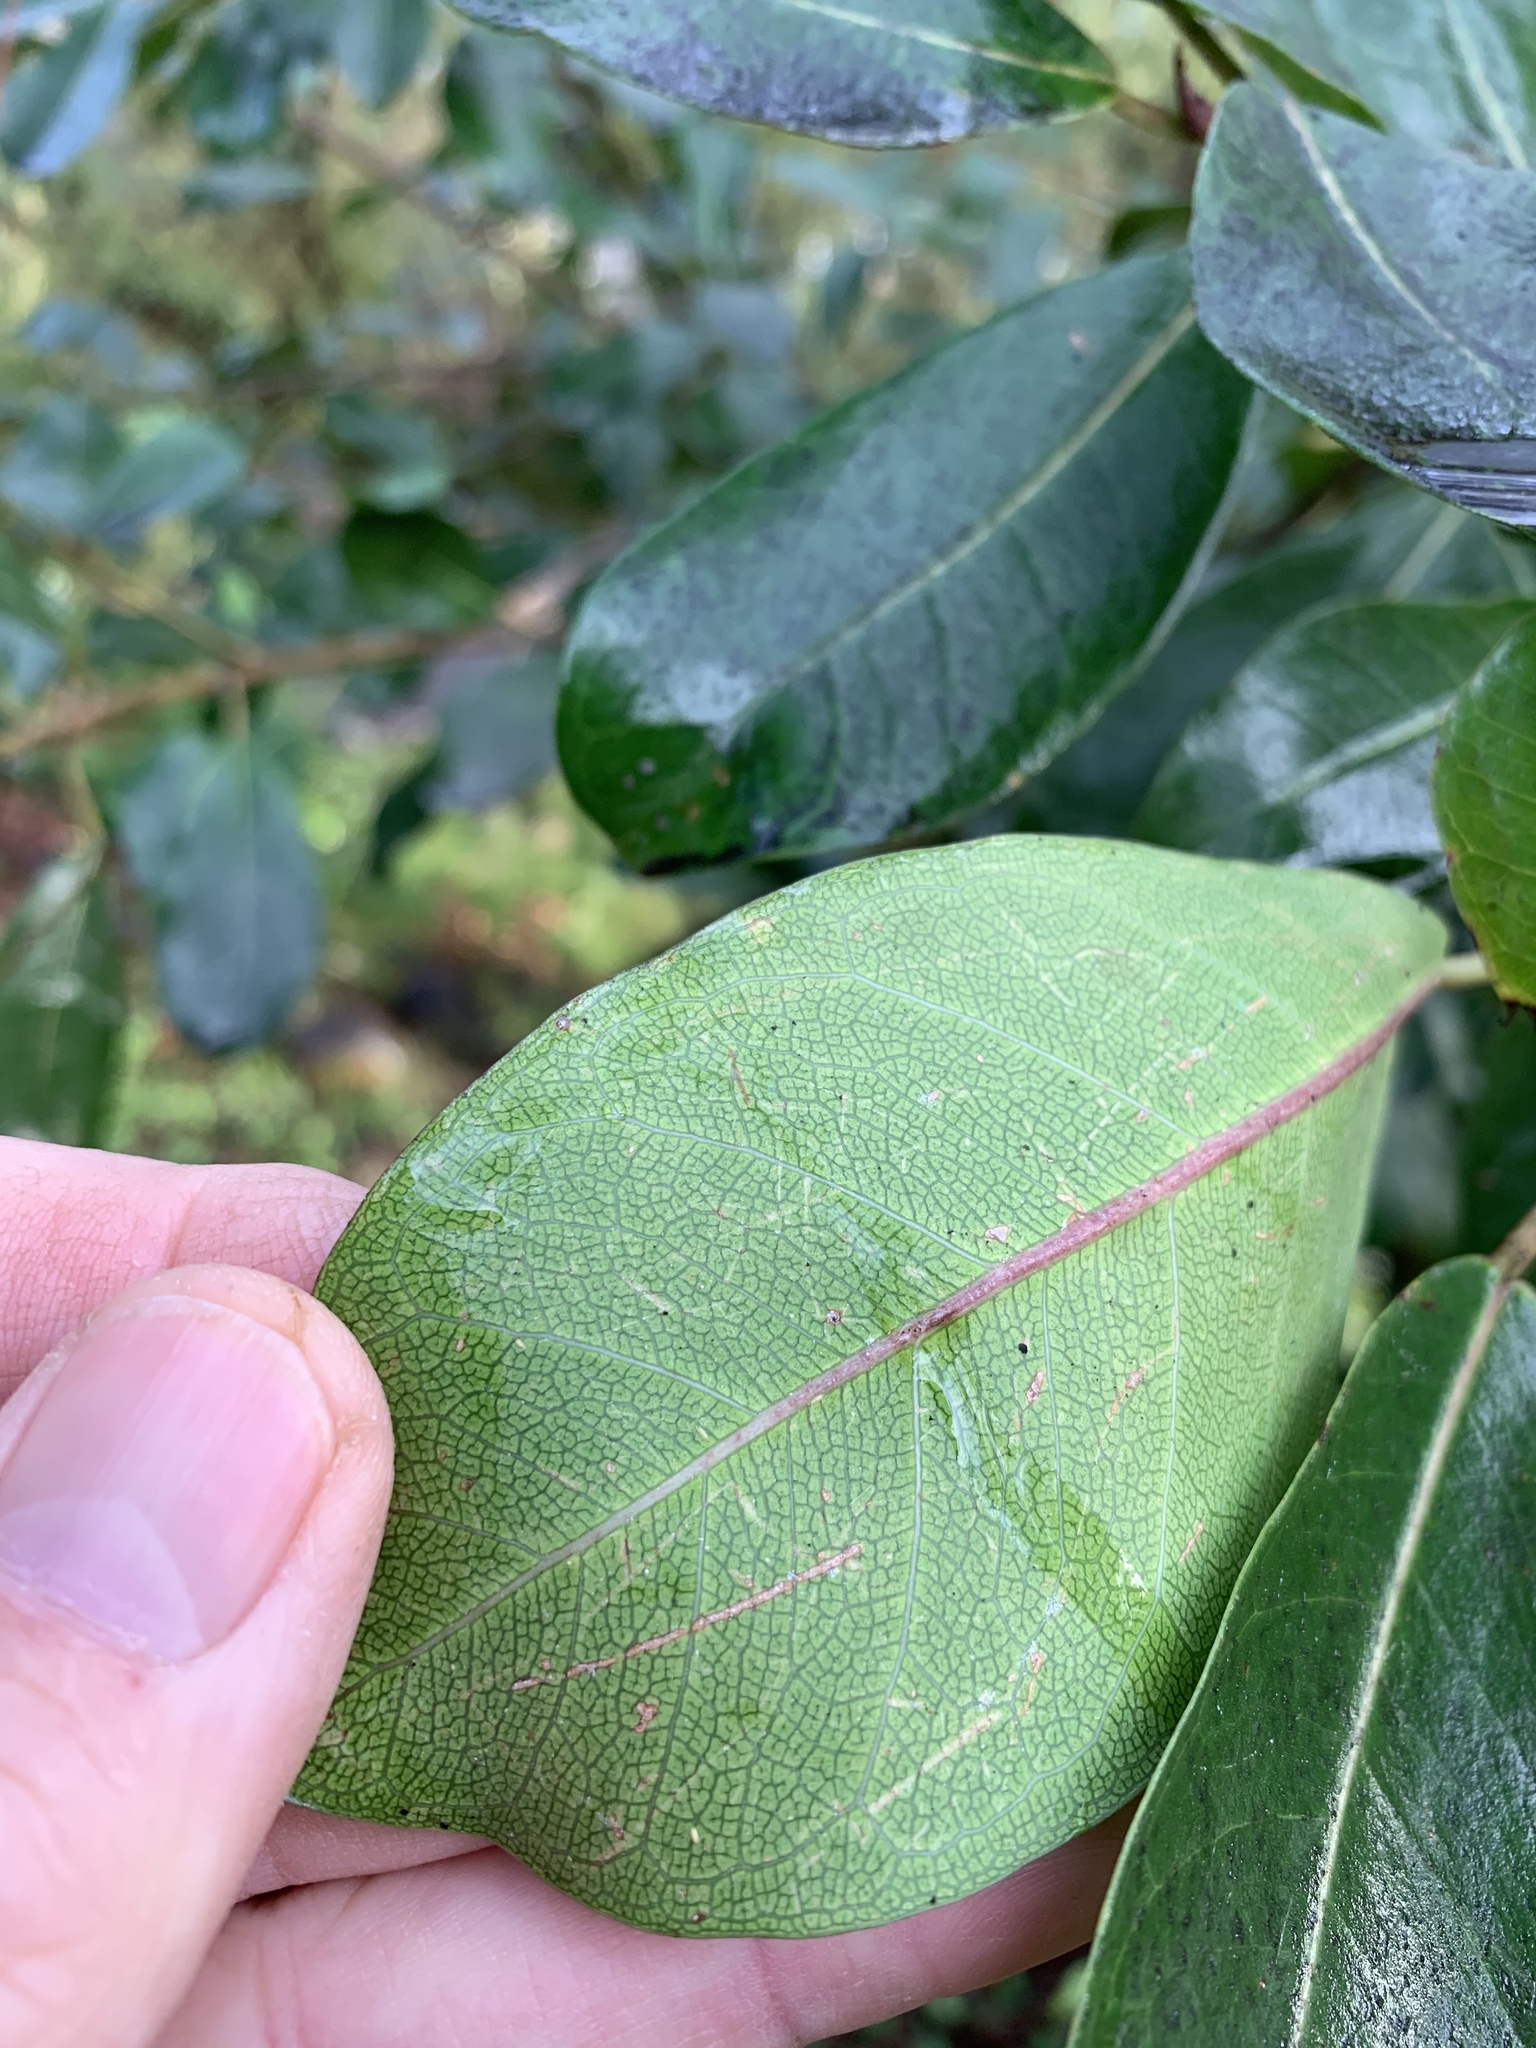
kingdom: Plantae
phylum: Tracheophyta
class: Magnoliopsida
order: Rosales
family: Moraceae
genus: Ficus
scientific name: Ficus thonningii
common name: Fig
